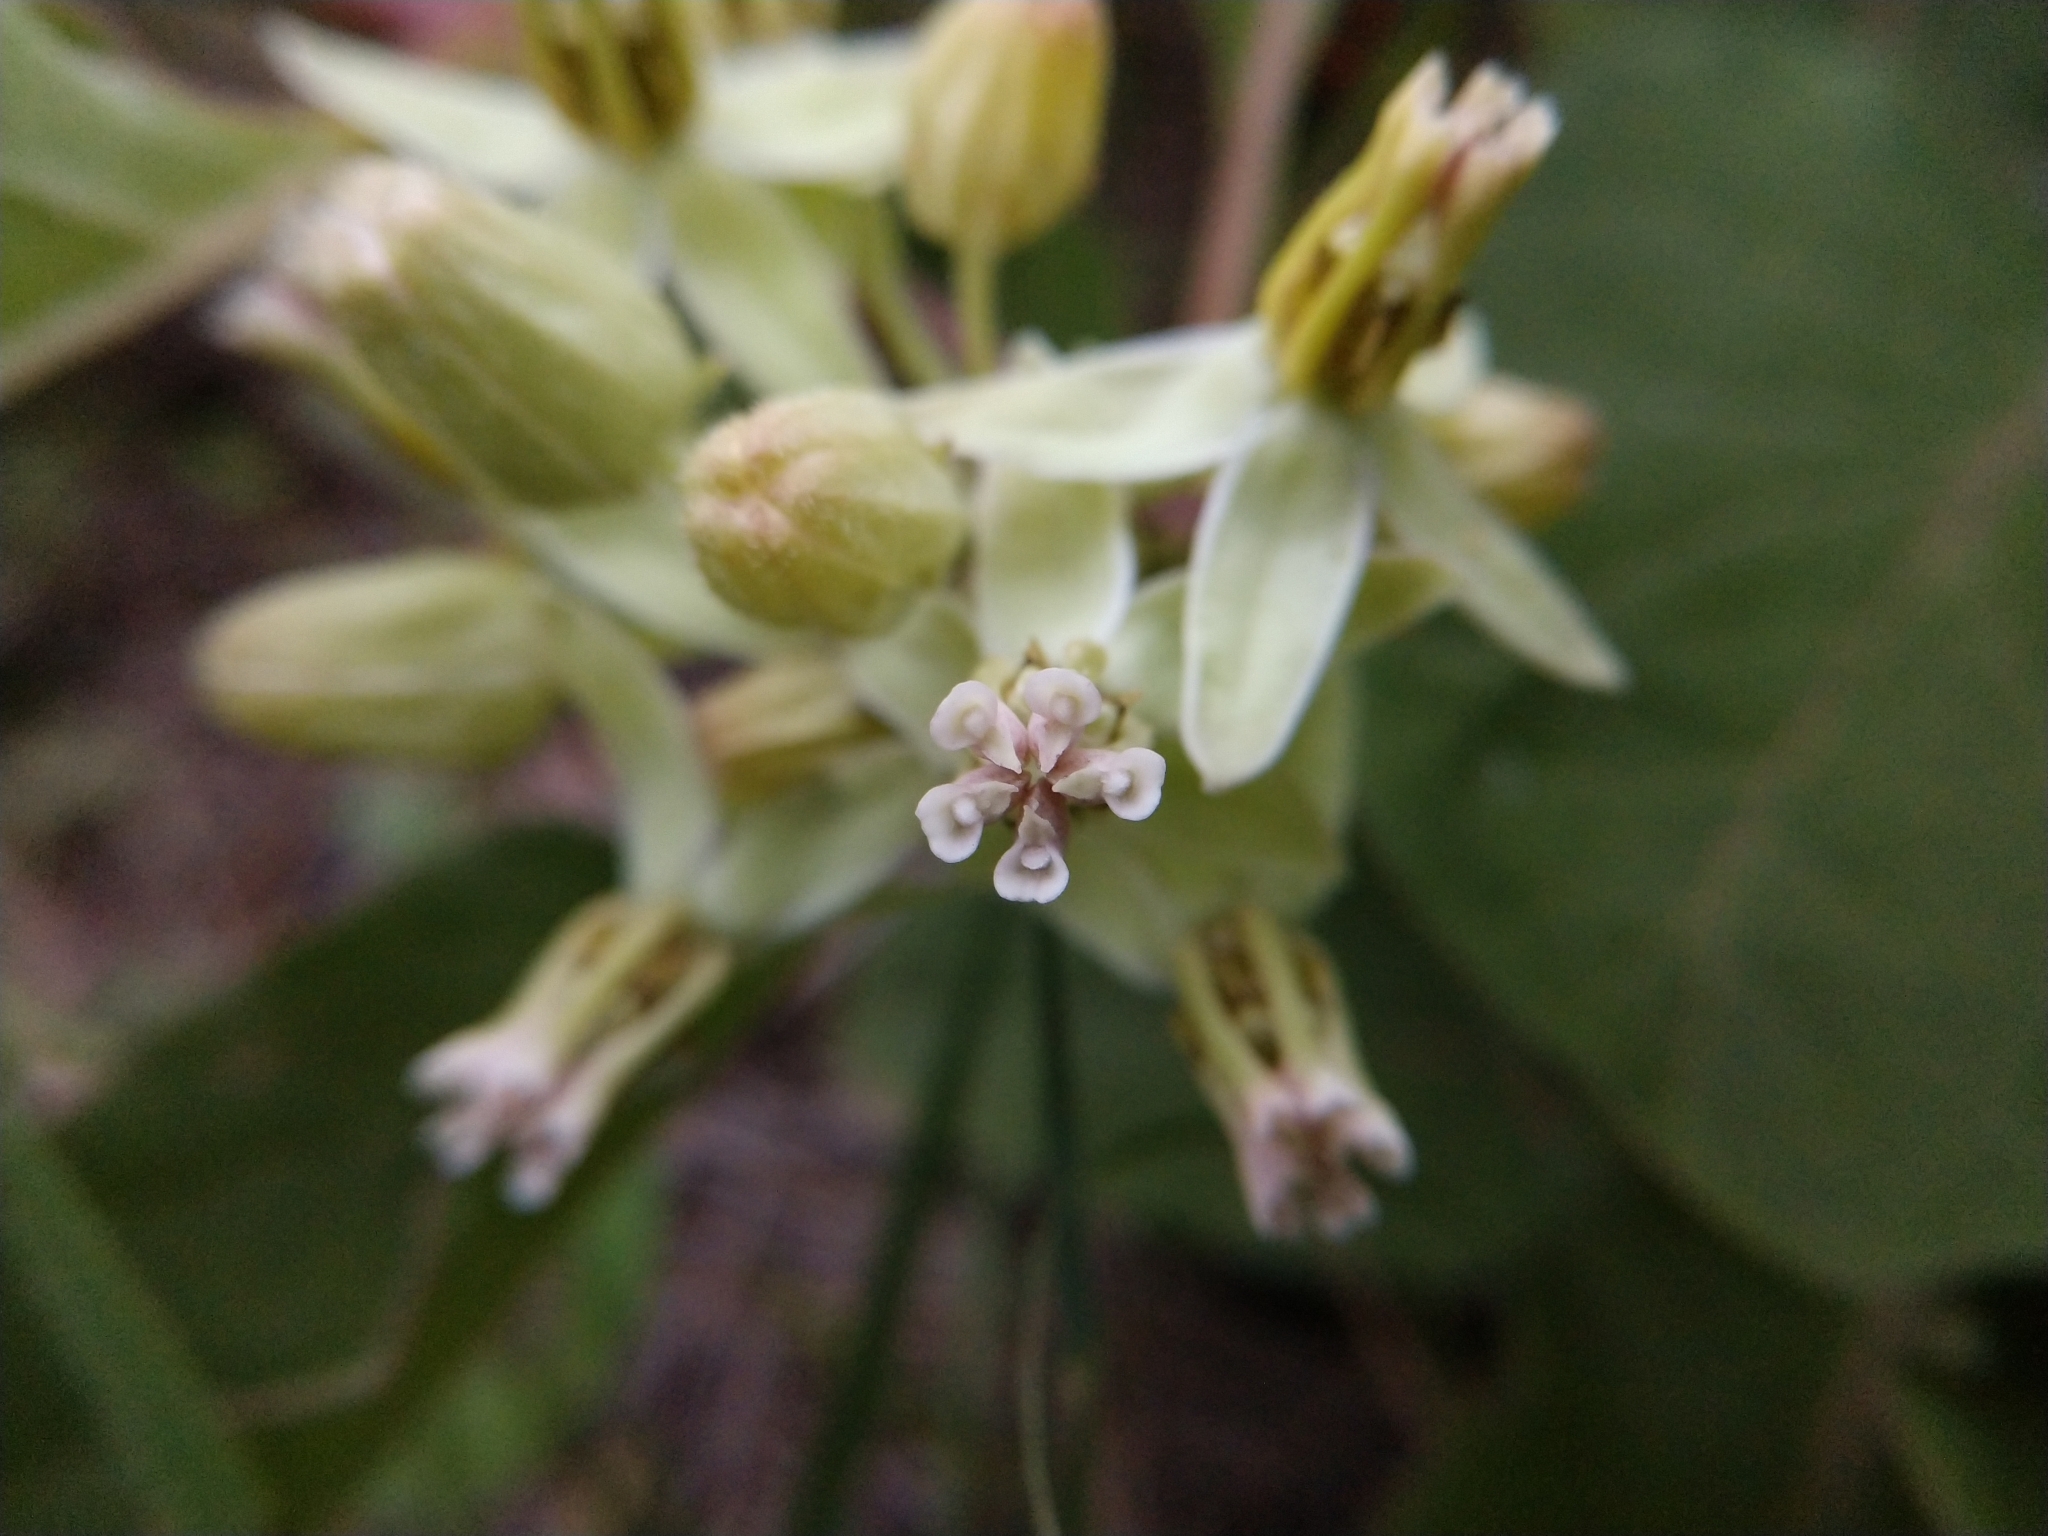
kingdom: Plantae
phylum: Tracheophyta
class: Magnoliopsida
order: Gentianales
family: Apocynaceae
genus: Asclepias
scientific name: Asclepias oenotheroides
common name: Zizotes milkweed
